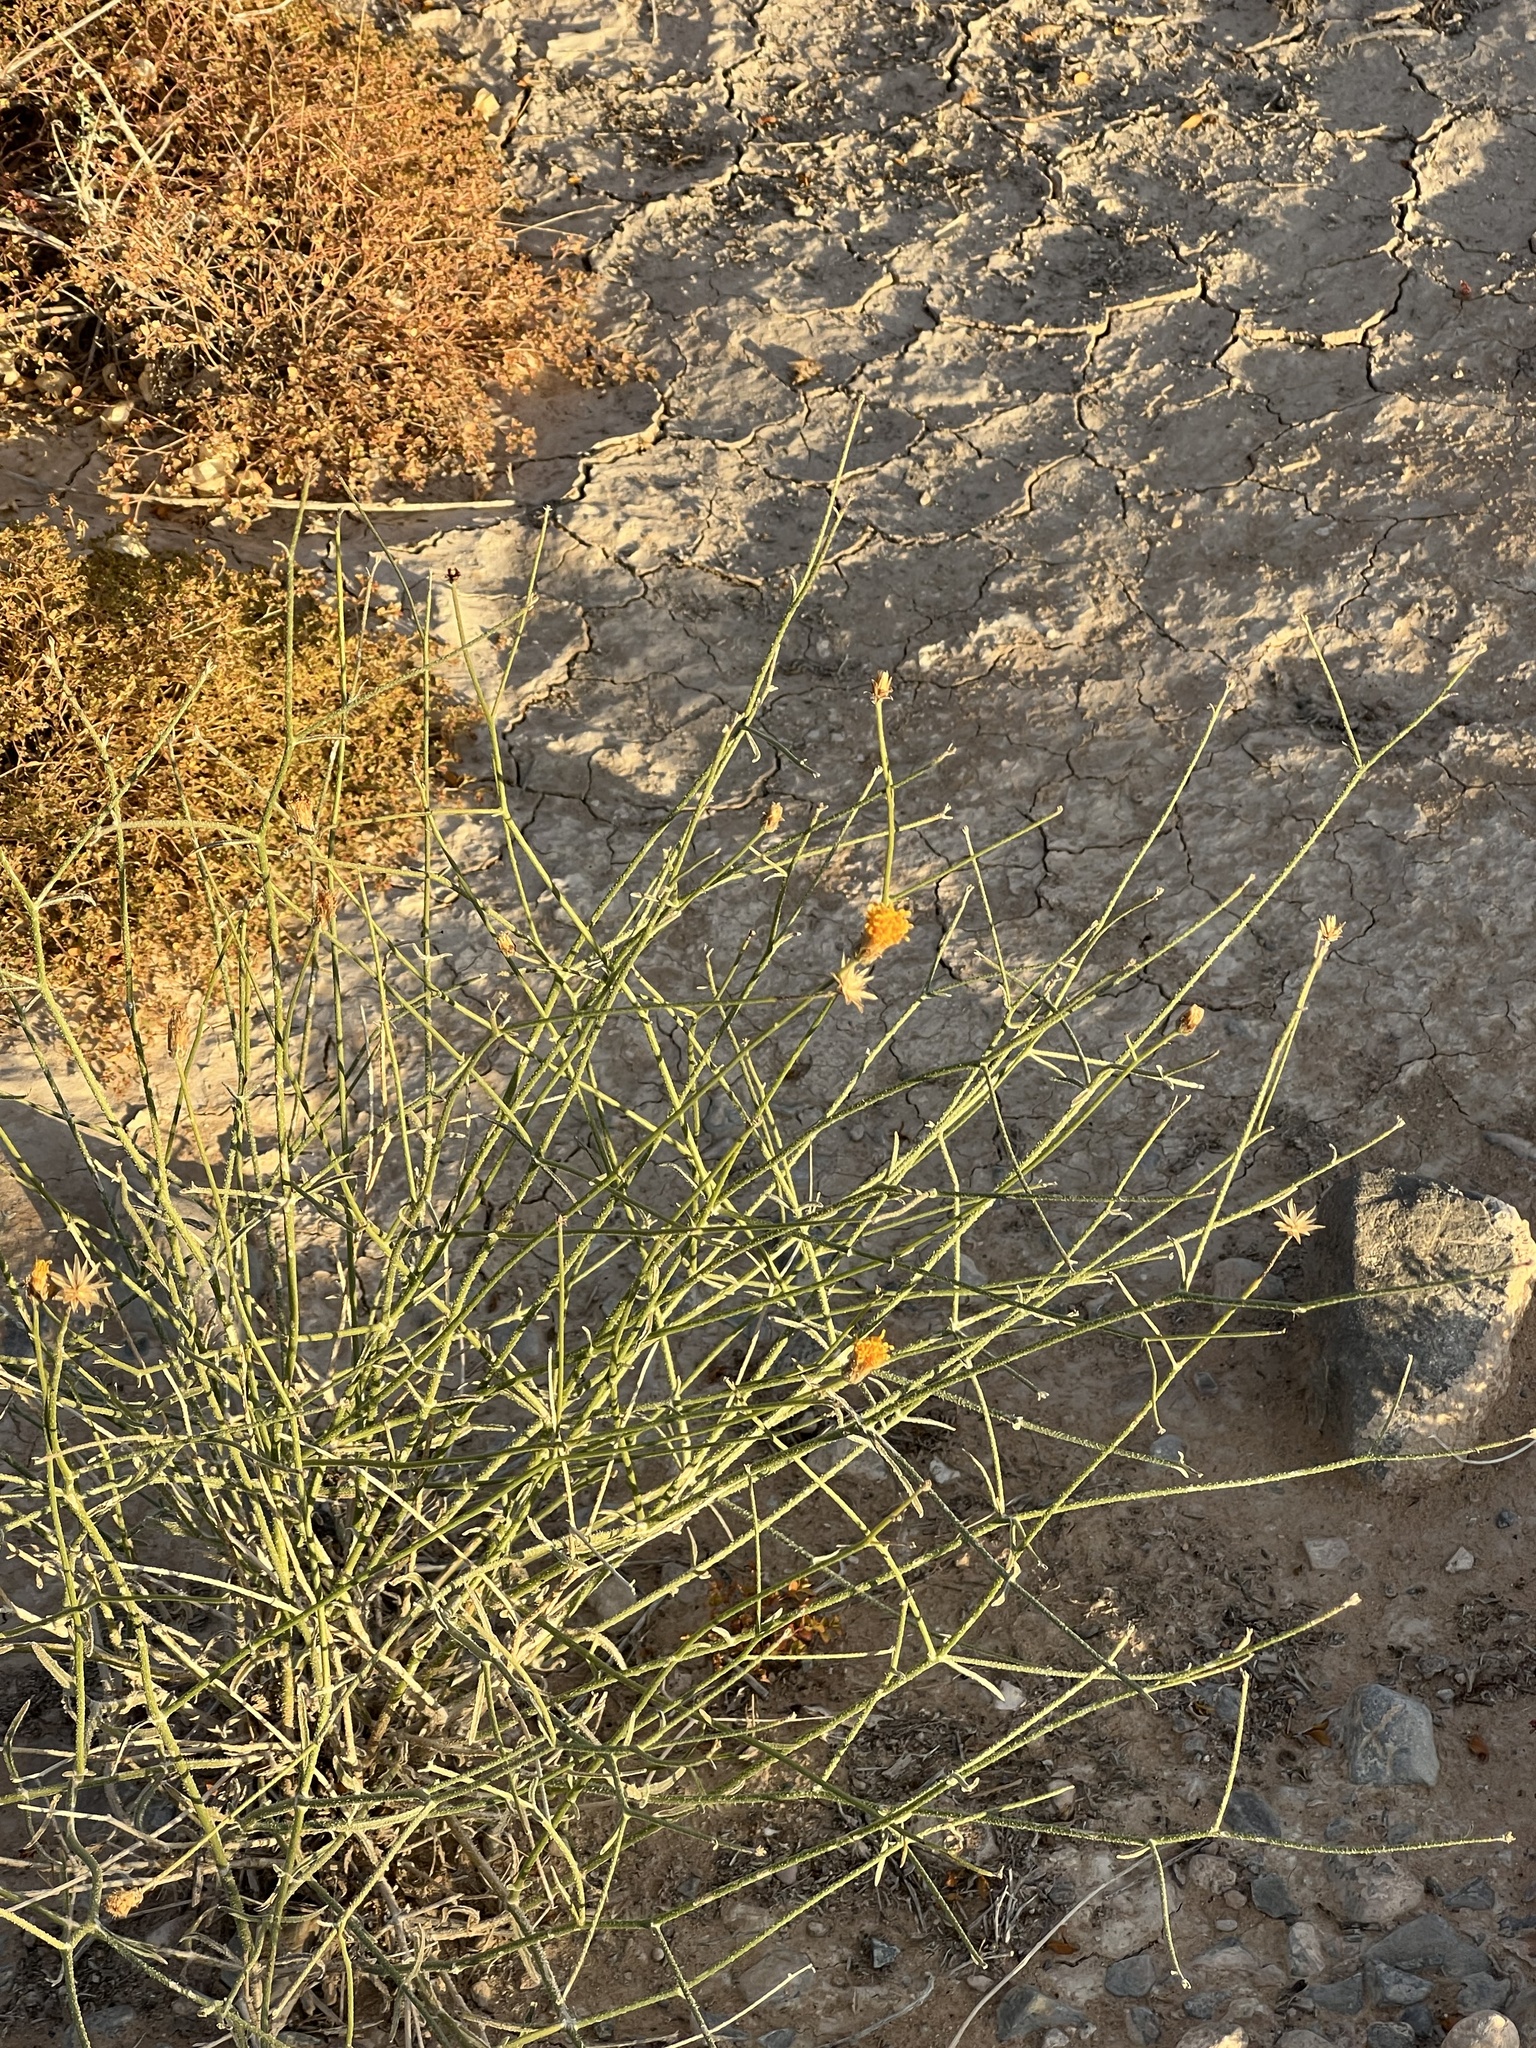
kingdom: Plantae
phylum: Tracheophyta
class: Magnoliopsida
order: Asterales
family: Asteraceae
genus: Bebbia
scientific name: Bebbia juncea
